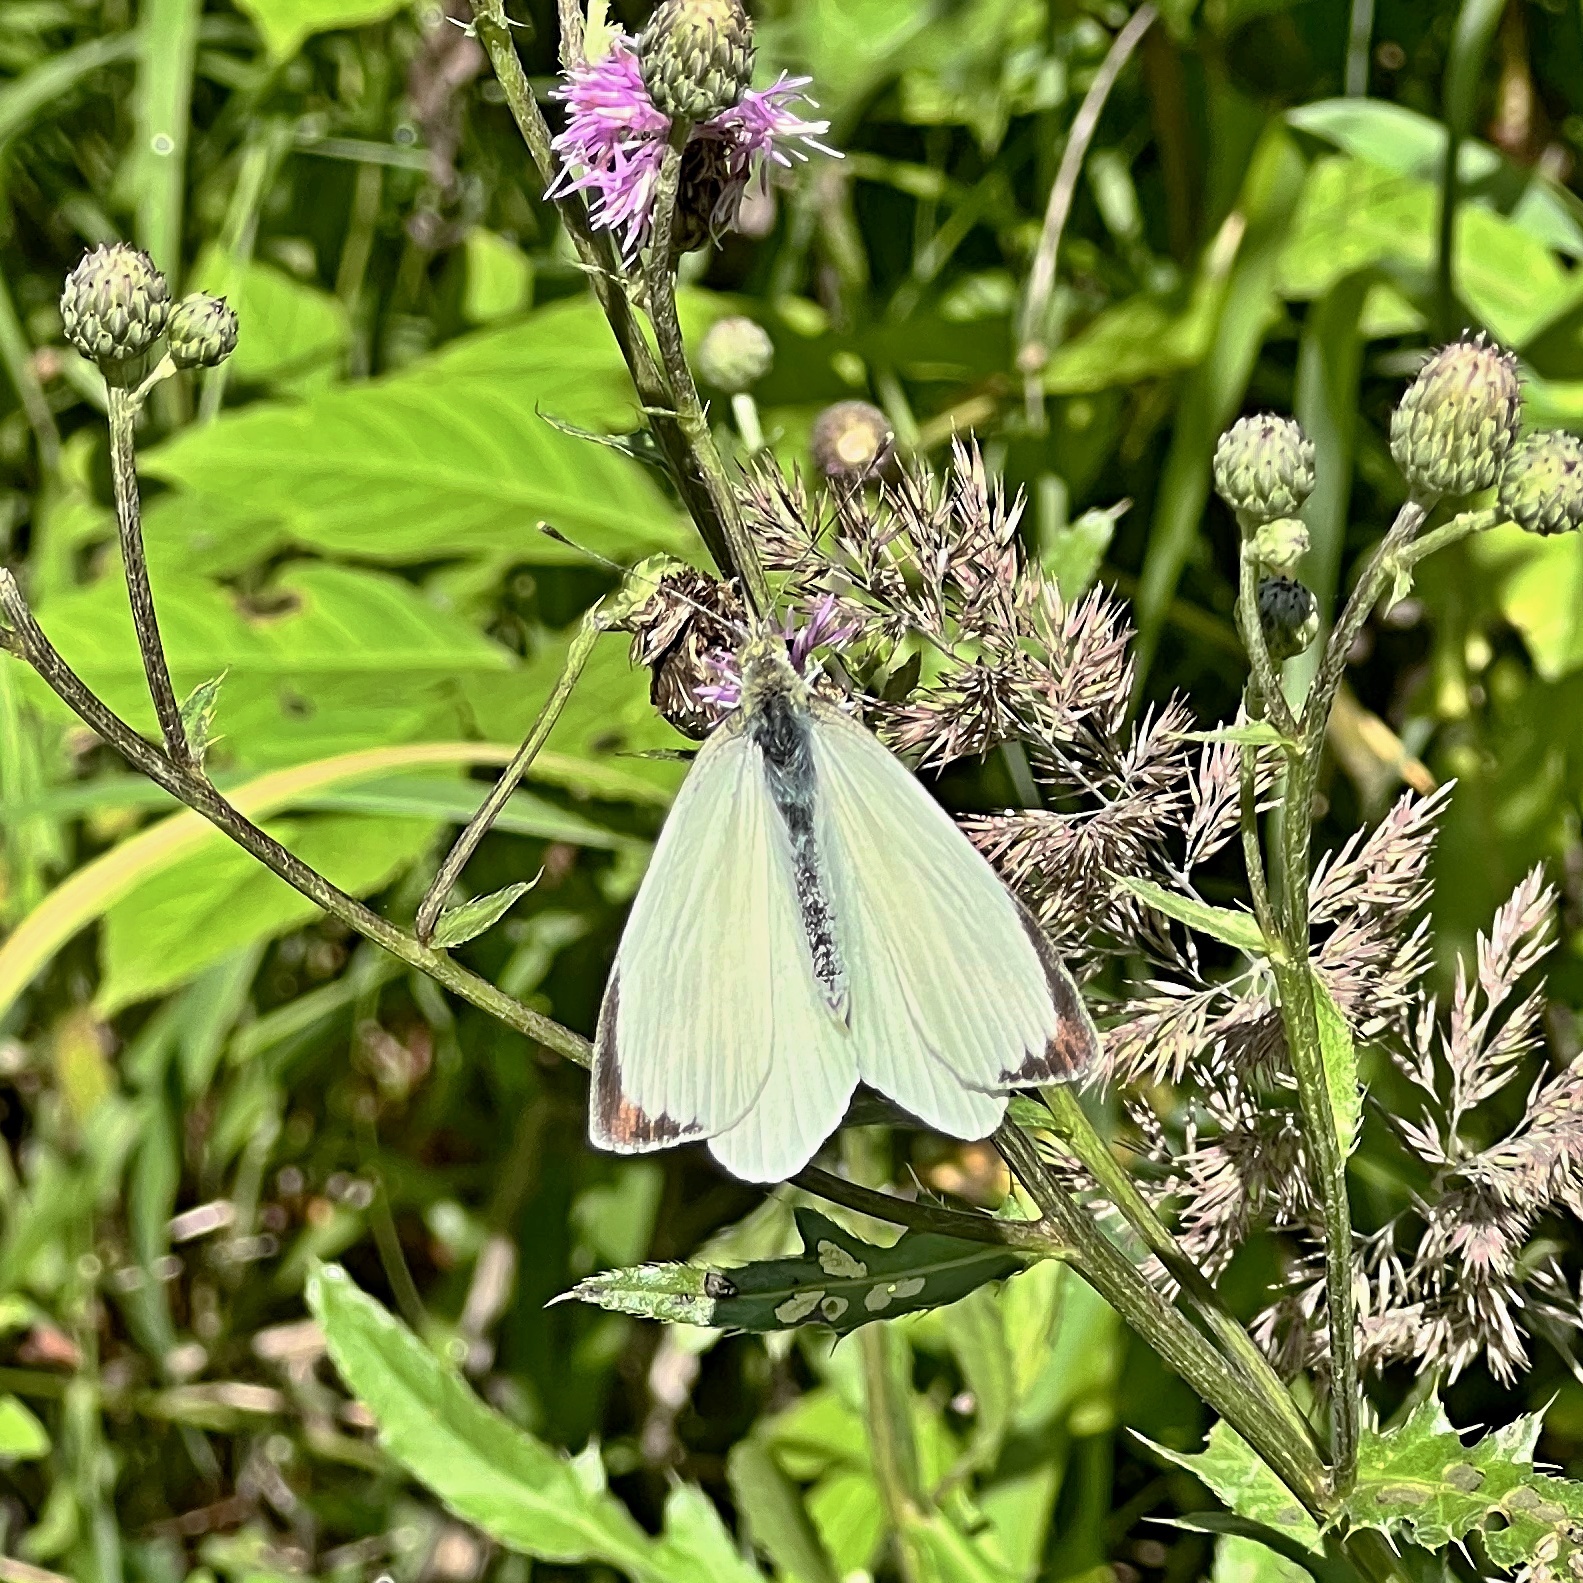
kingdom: Animalia
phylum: Arthropoda
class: Insecta
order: Lepidoptera
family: Pieridae
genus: Pieris
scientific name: Pieris brassicae
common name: Large white
